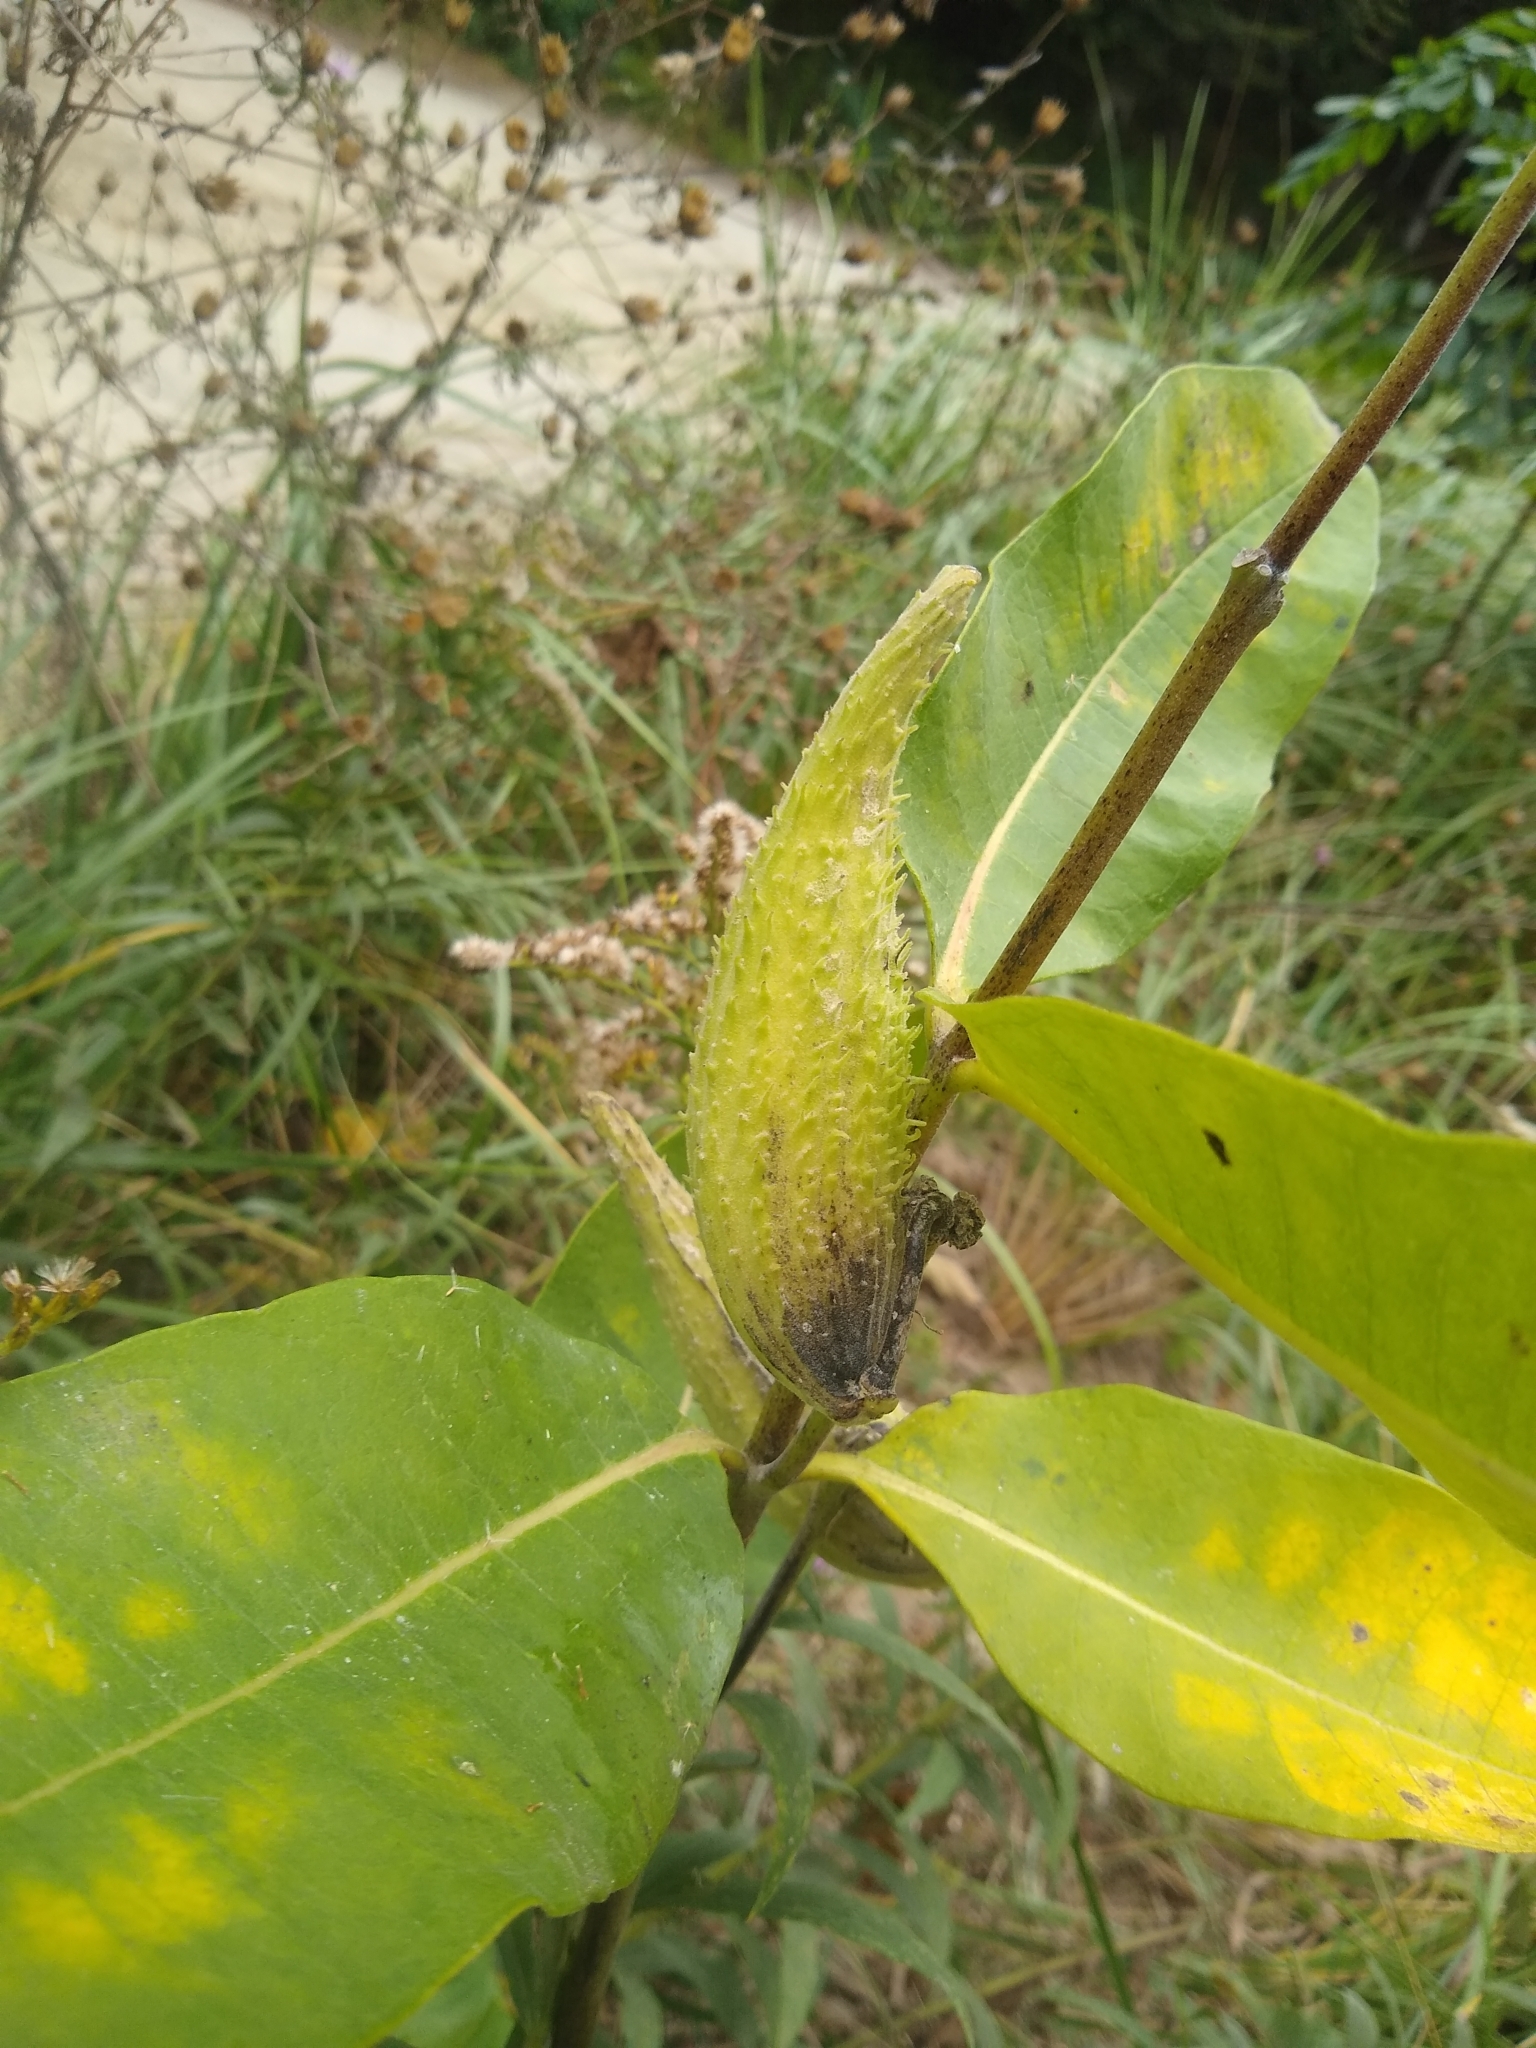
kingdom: Plantae
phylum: Tracheophyta
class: Magnoliopsida
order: Gentianales
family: Apocynaceae
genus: Asclepias
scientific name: Asclepias syriaca
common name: Common milkweed
